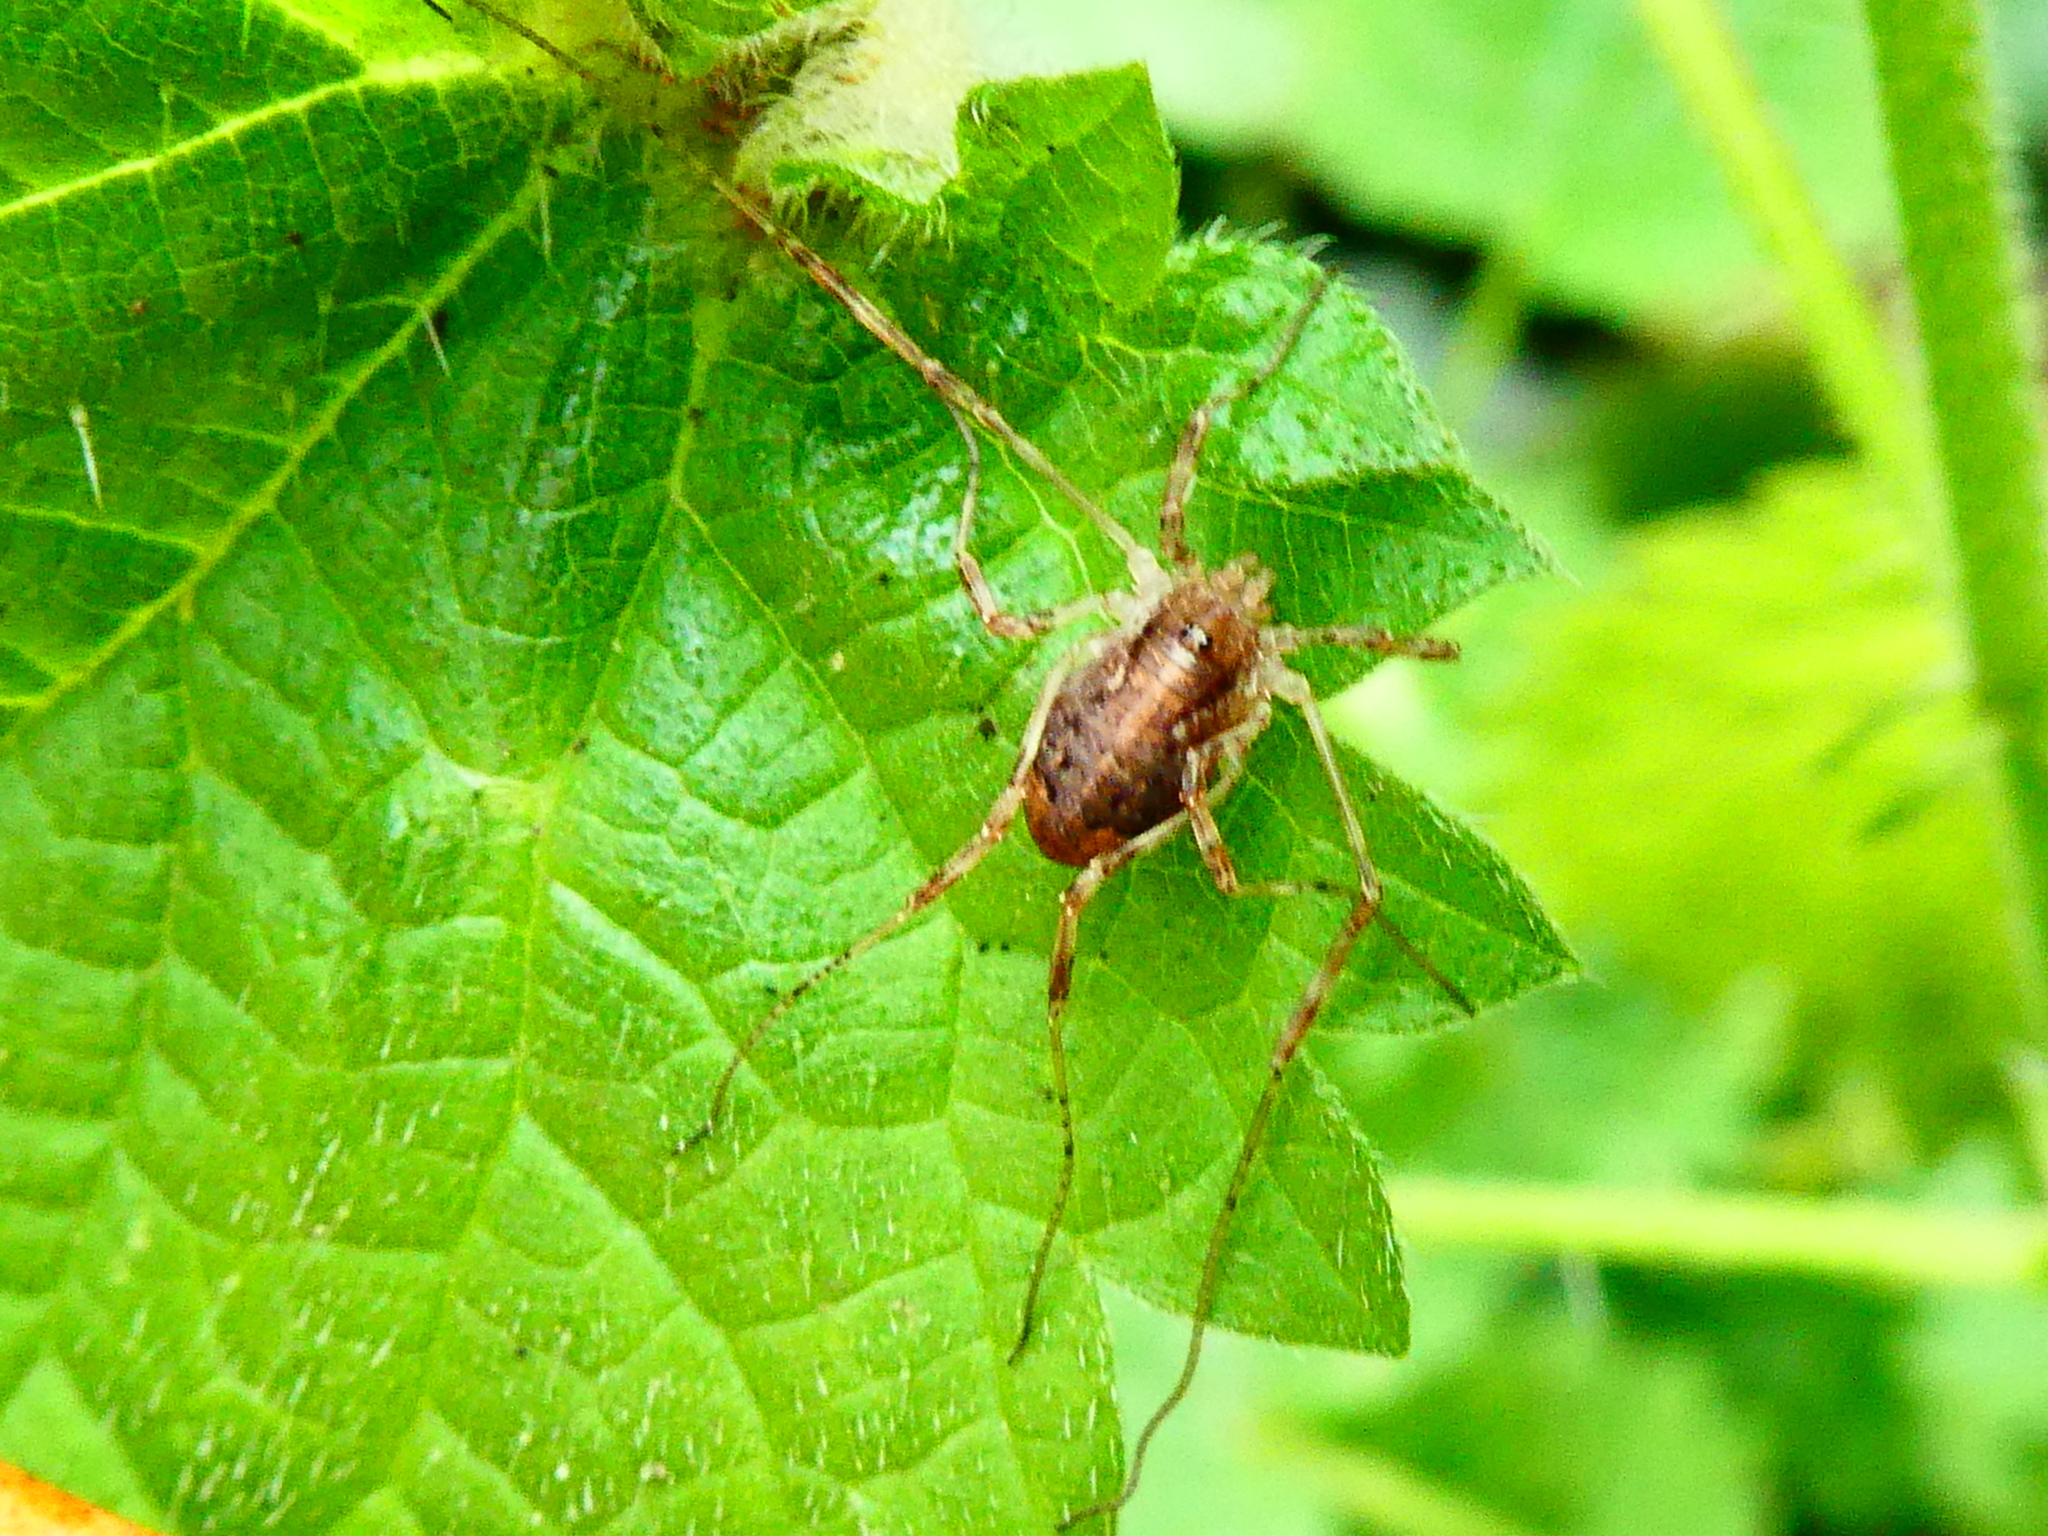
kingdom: Animalia
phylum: Arthropoda
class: Arachnida
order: Opiliones
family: Phalangiidae
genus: Paroligolophus
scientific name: Paroligolophus agrestis
